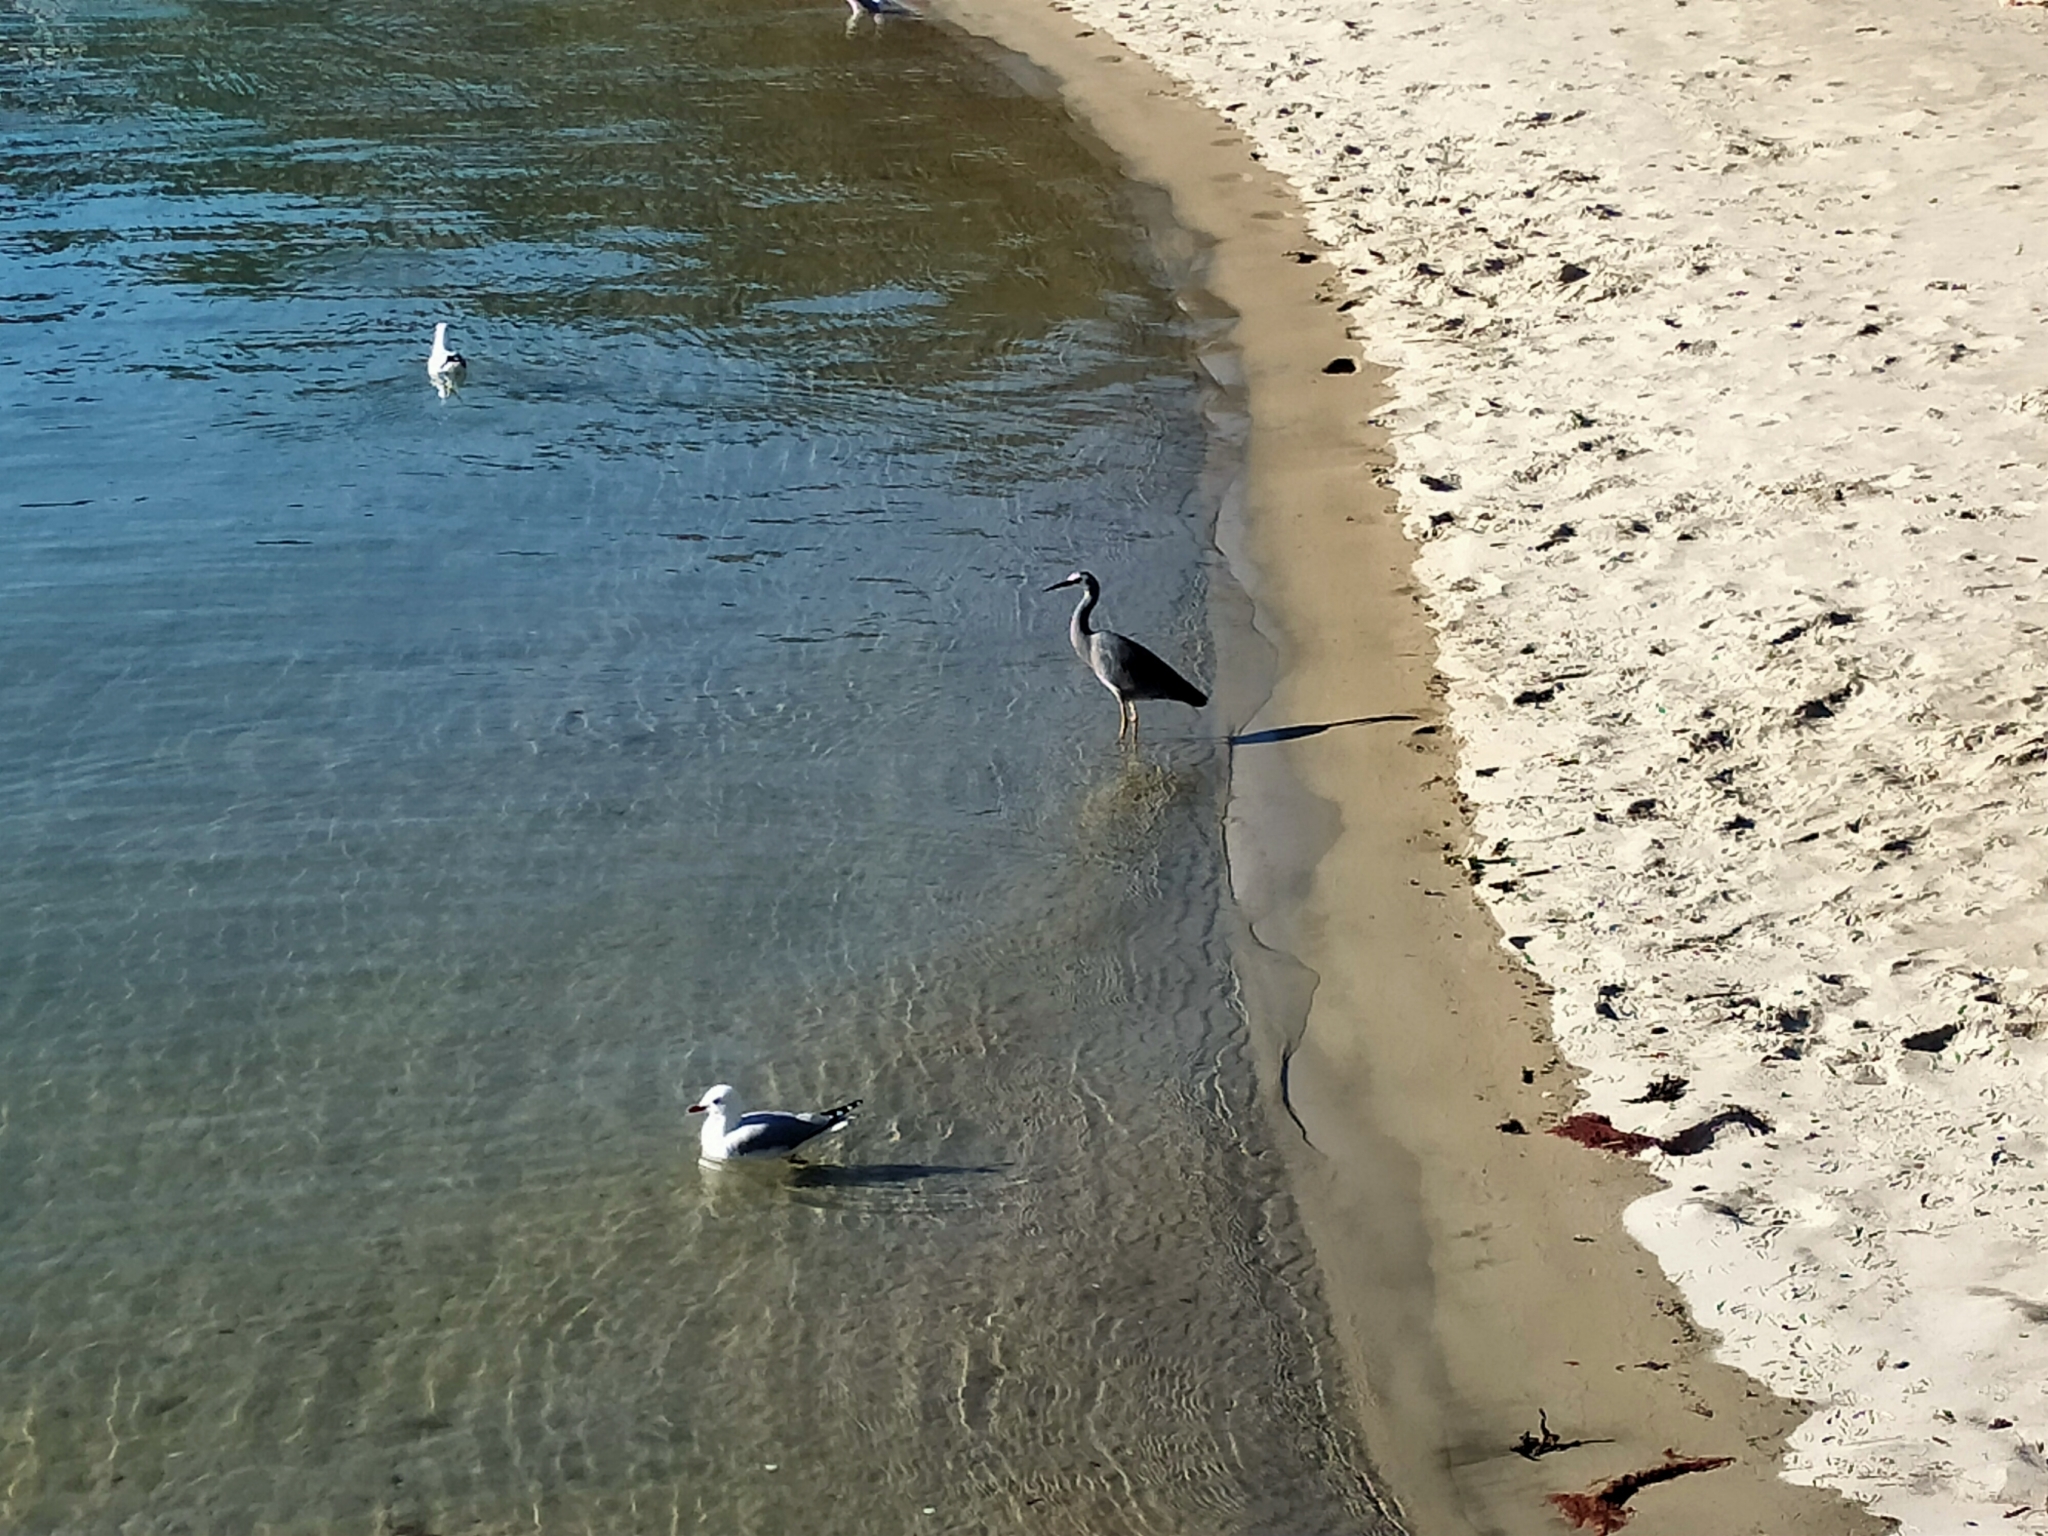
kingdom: Animalia
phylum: Chordata
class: Aves
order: Pelecaniformes
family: Ardeidae
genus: Egretta
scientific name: Egretta novaehollandiae
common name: White-faced heron
